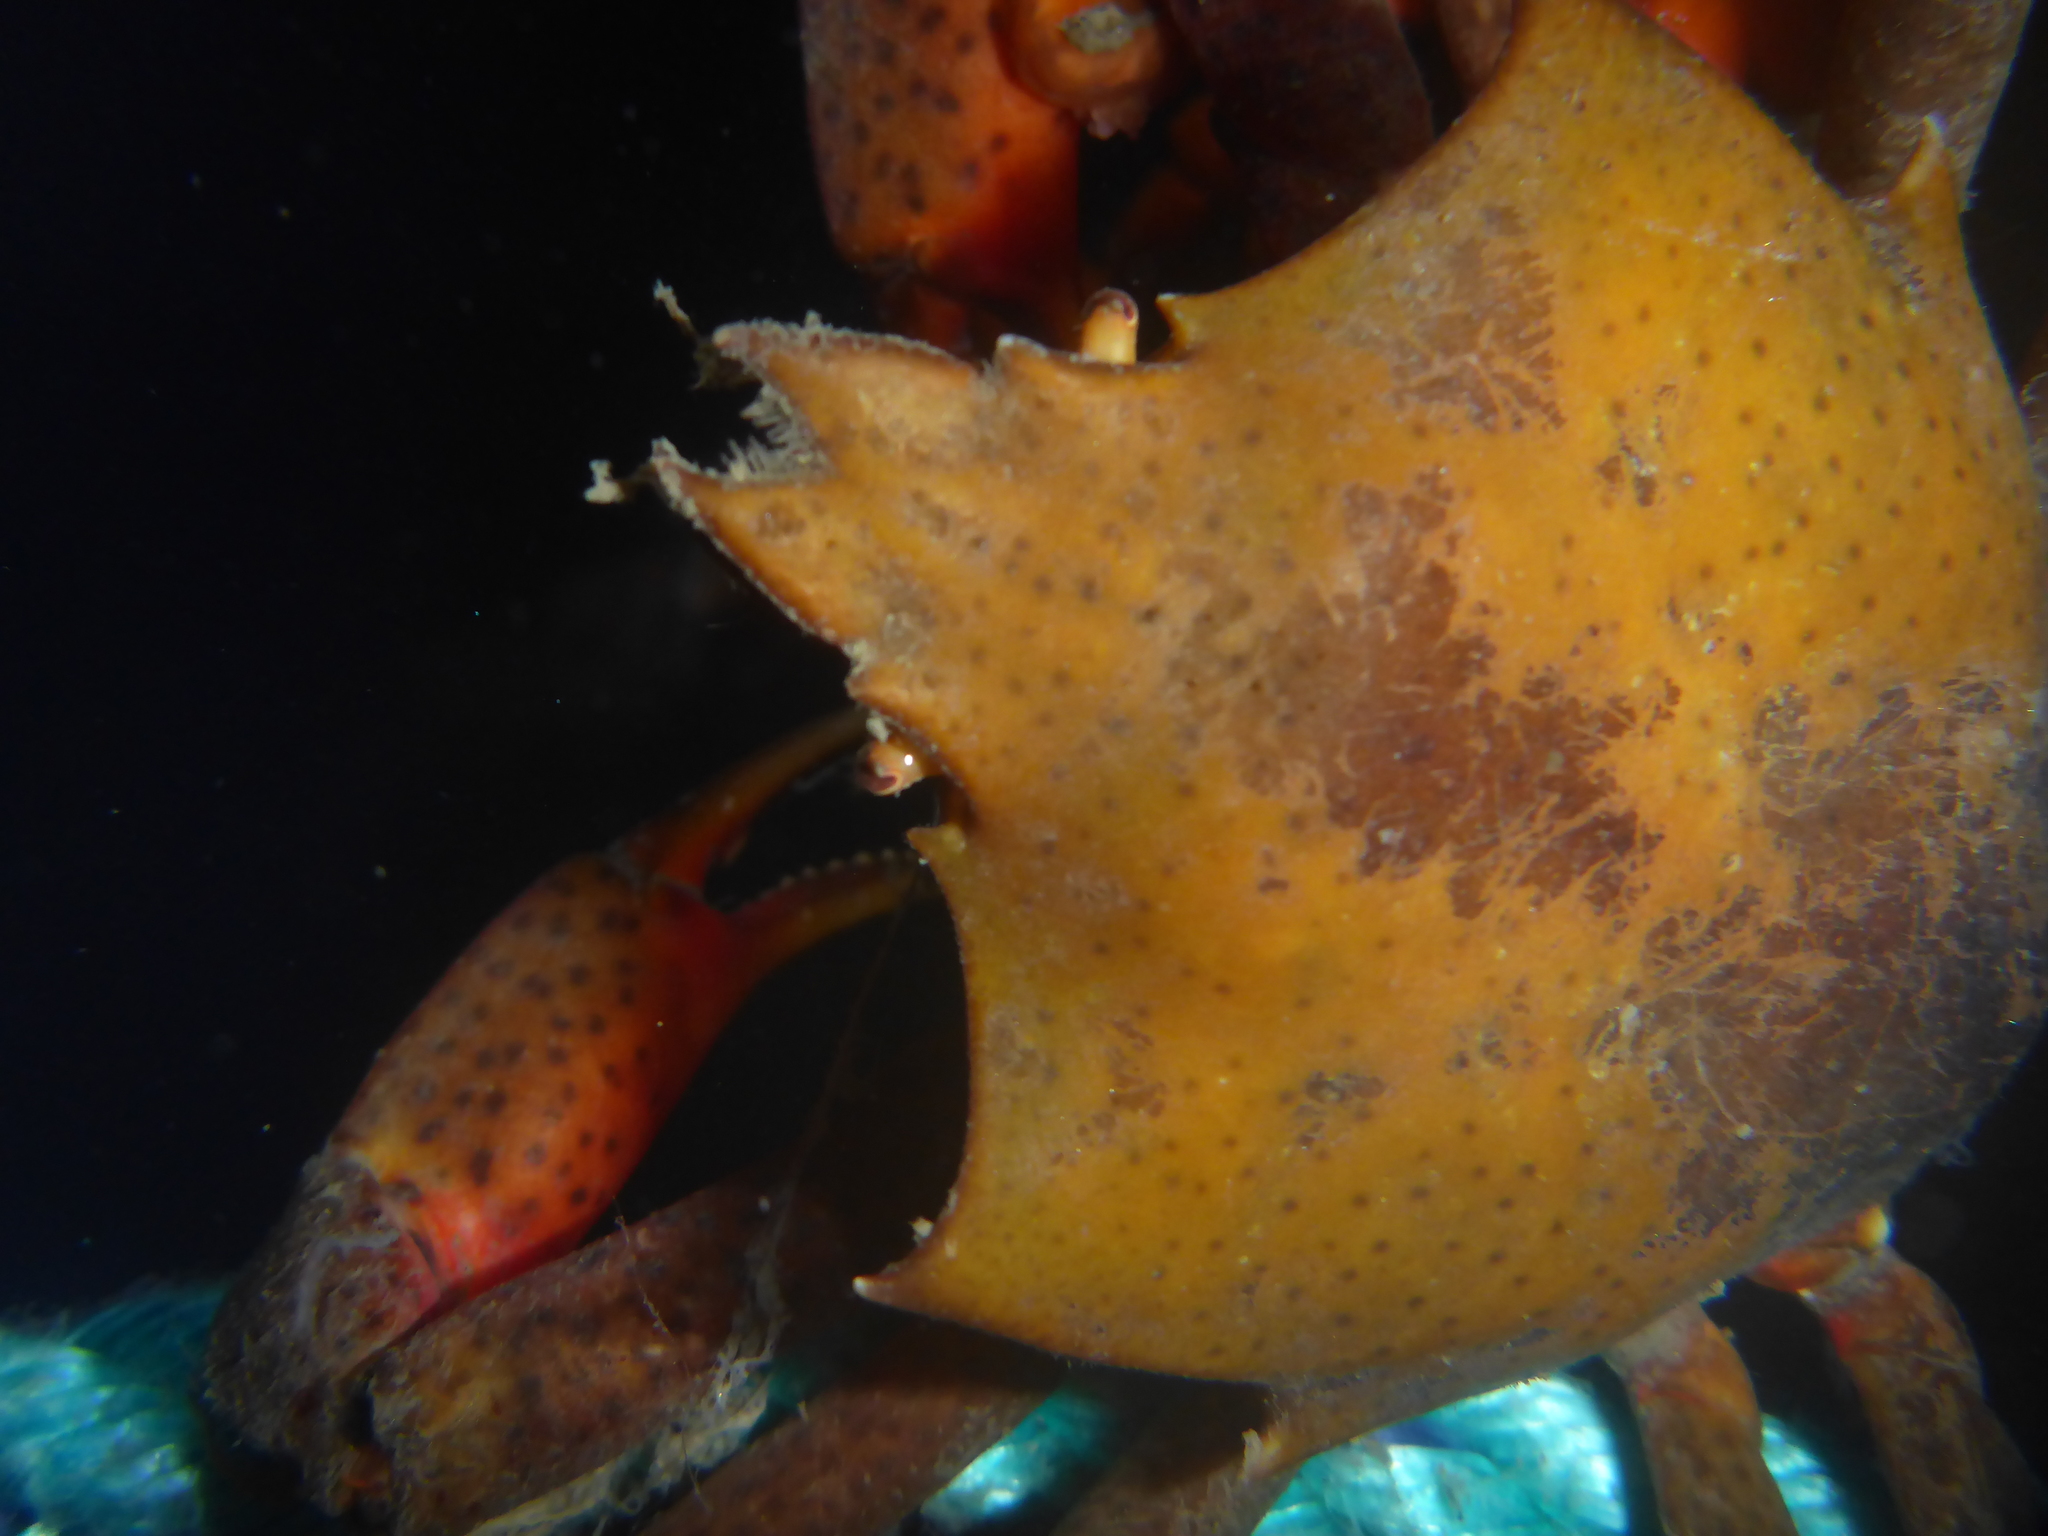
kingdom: Animalia
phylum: Arthropoda
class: Malacostraca
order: Decapoda
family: Epialtidae
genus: Pugettia
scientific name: Pugettia producta
